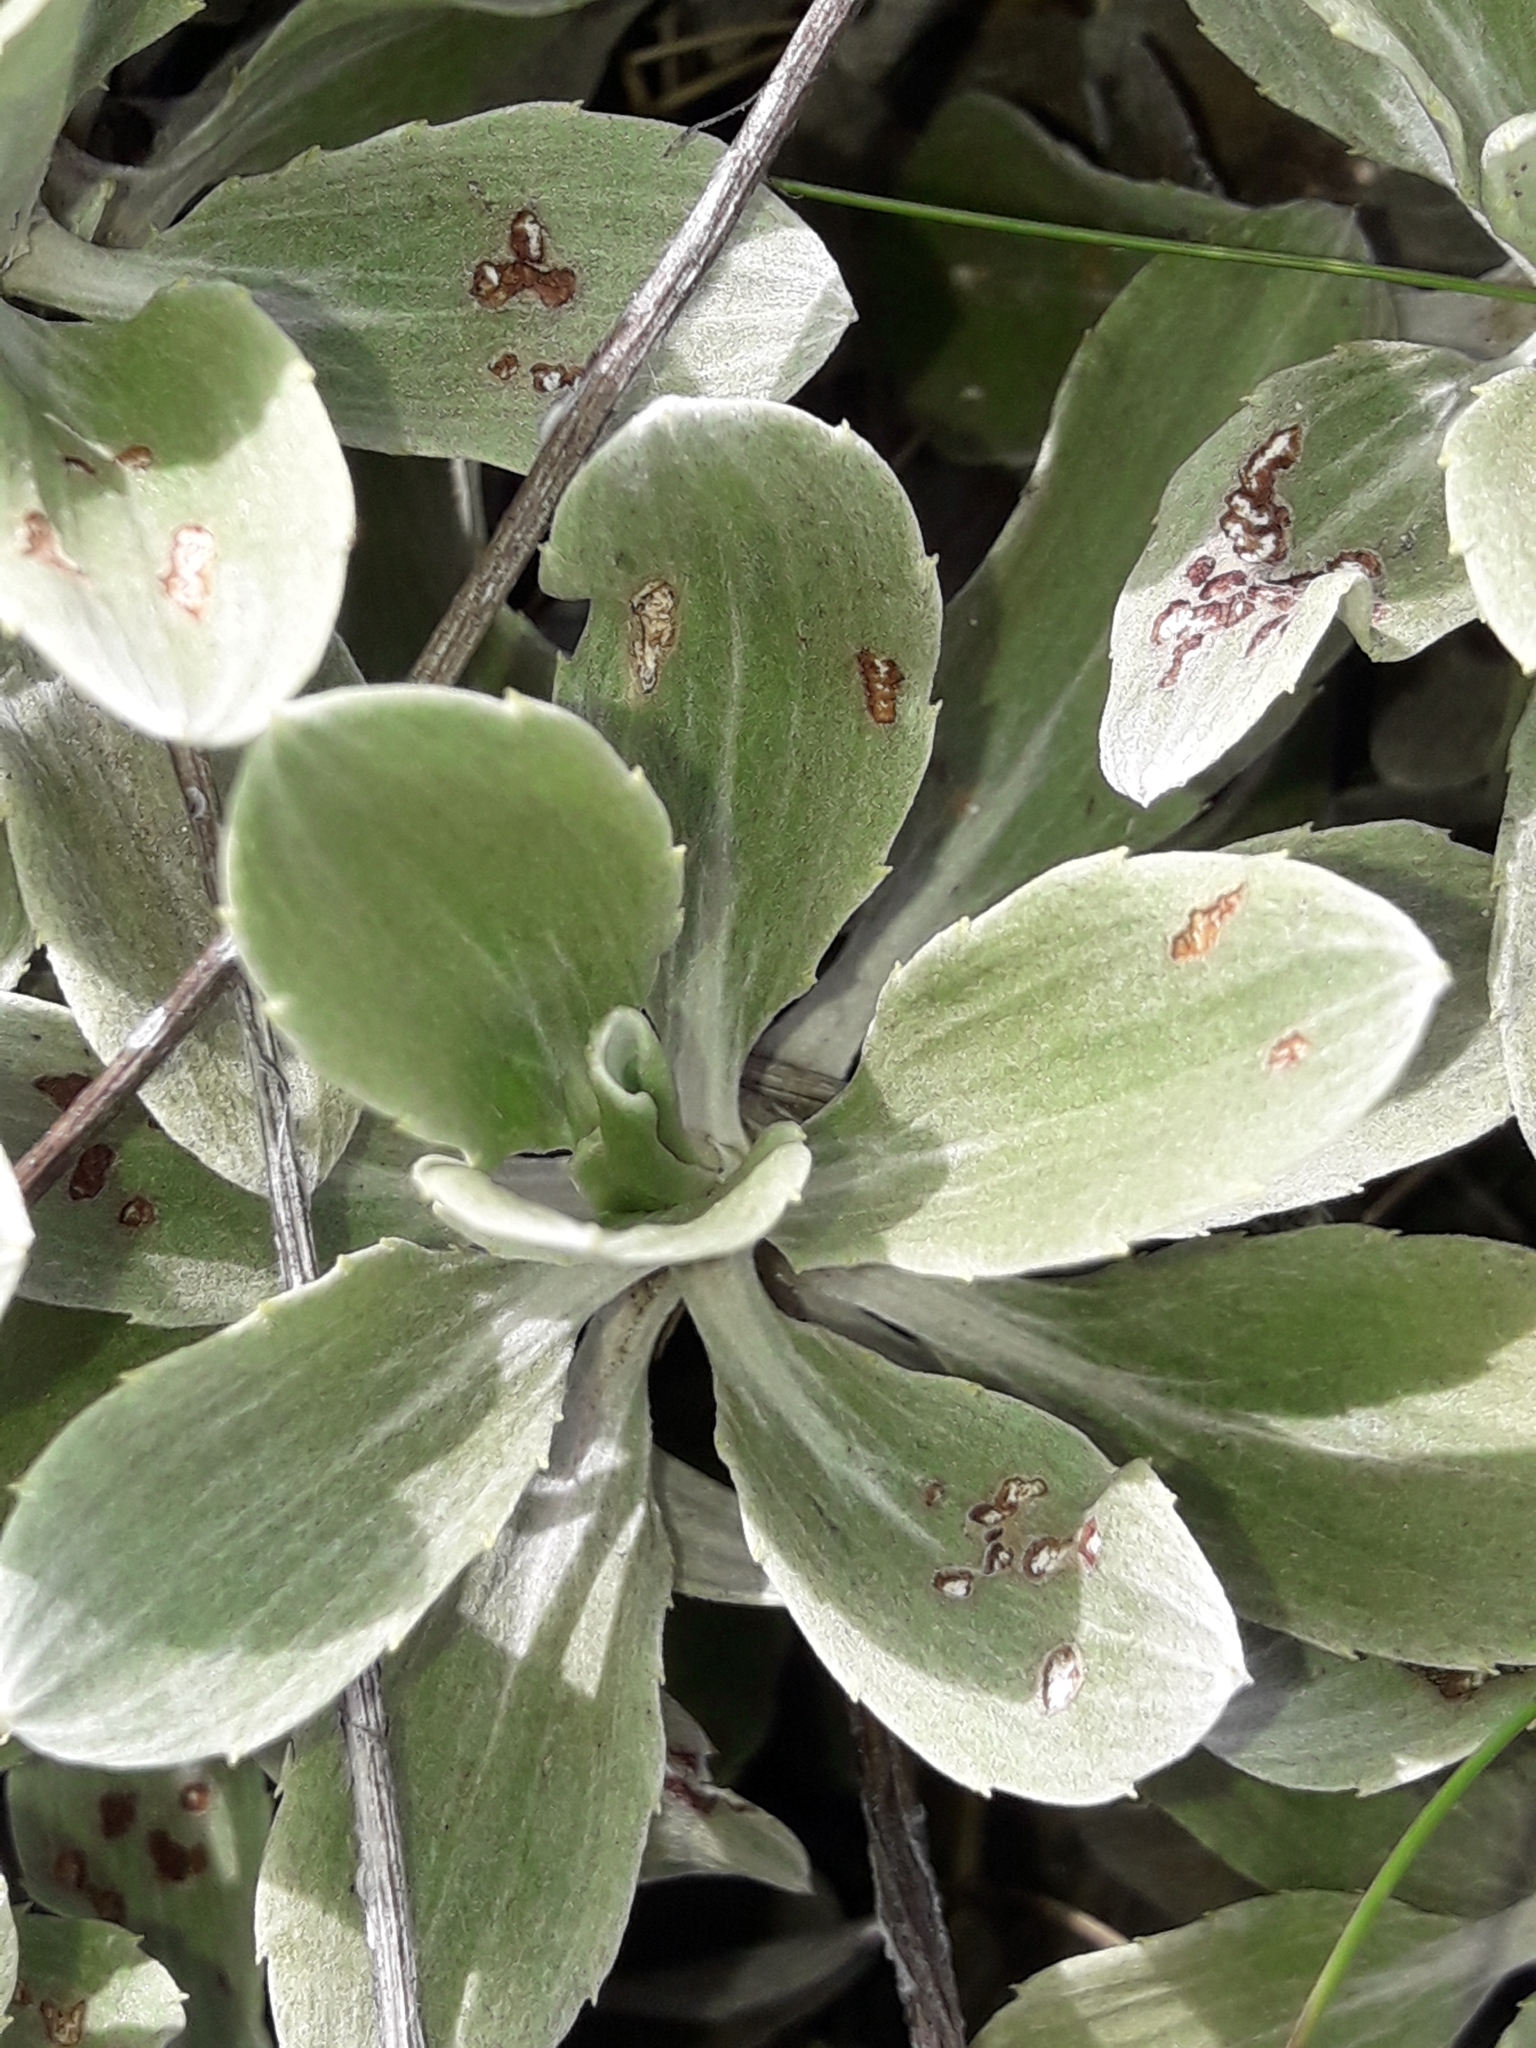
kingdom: Plantae
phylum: Tracheophyta
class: Magnoliopsida
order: Asterales
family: Asteraceae
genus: Celmisia
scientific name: Celmisia discolor
